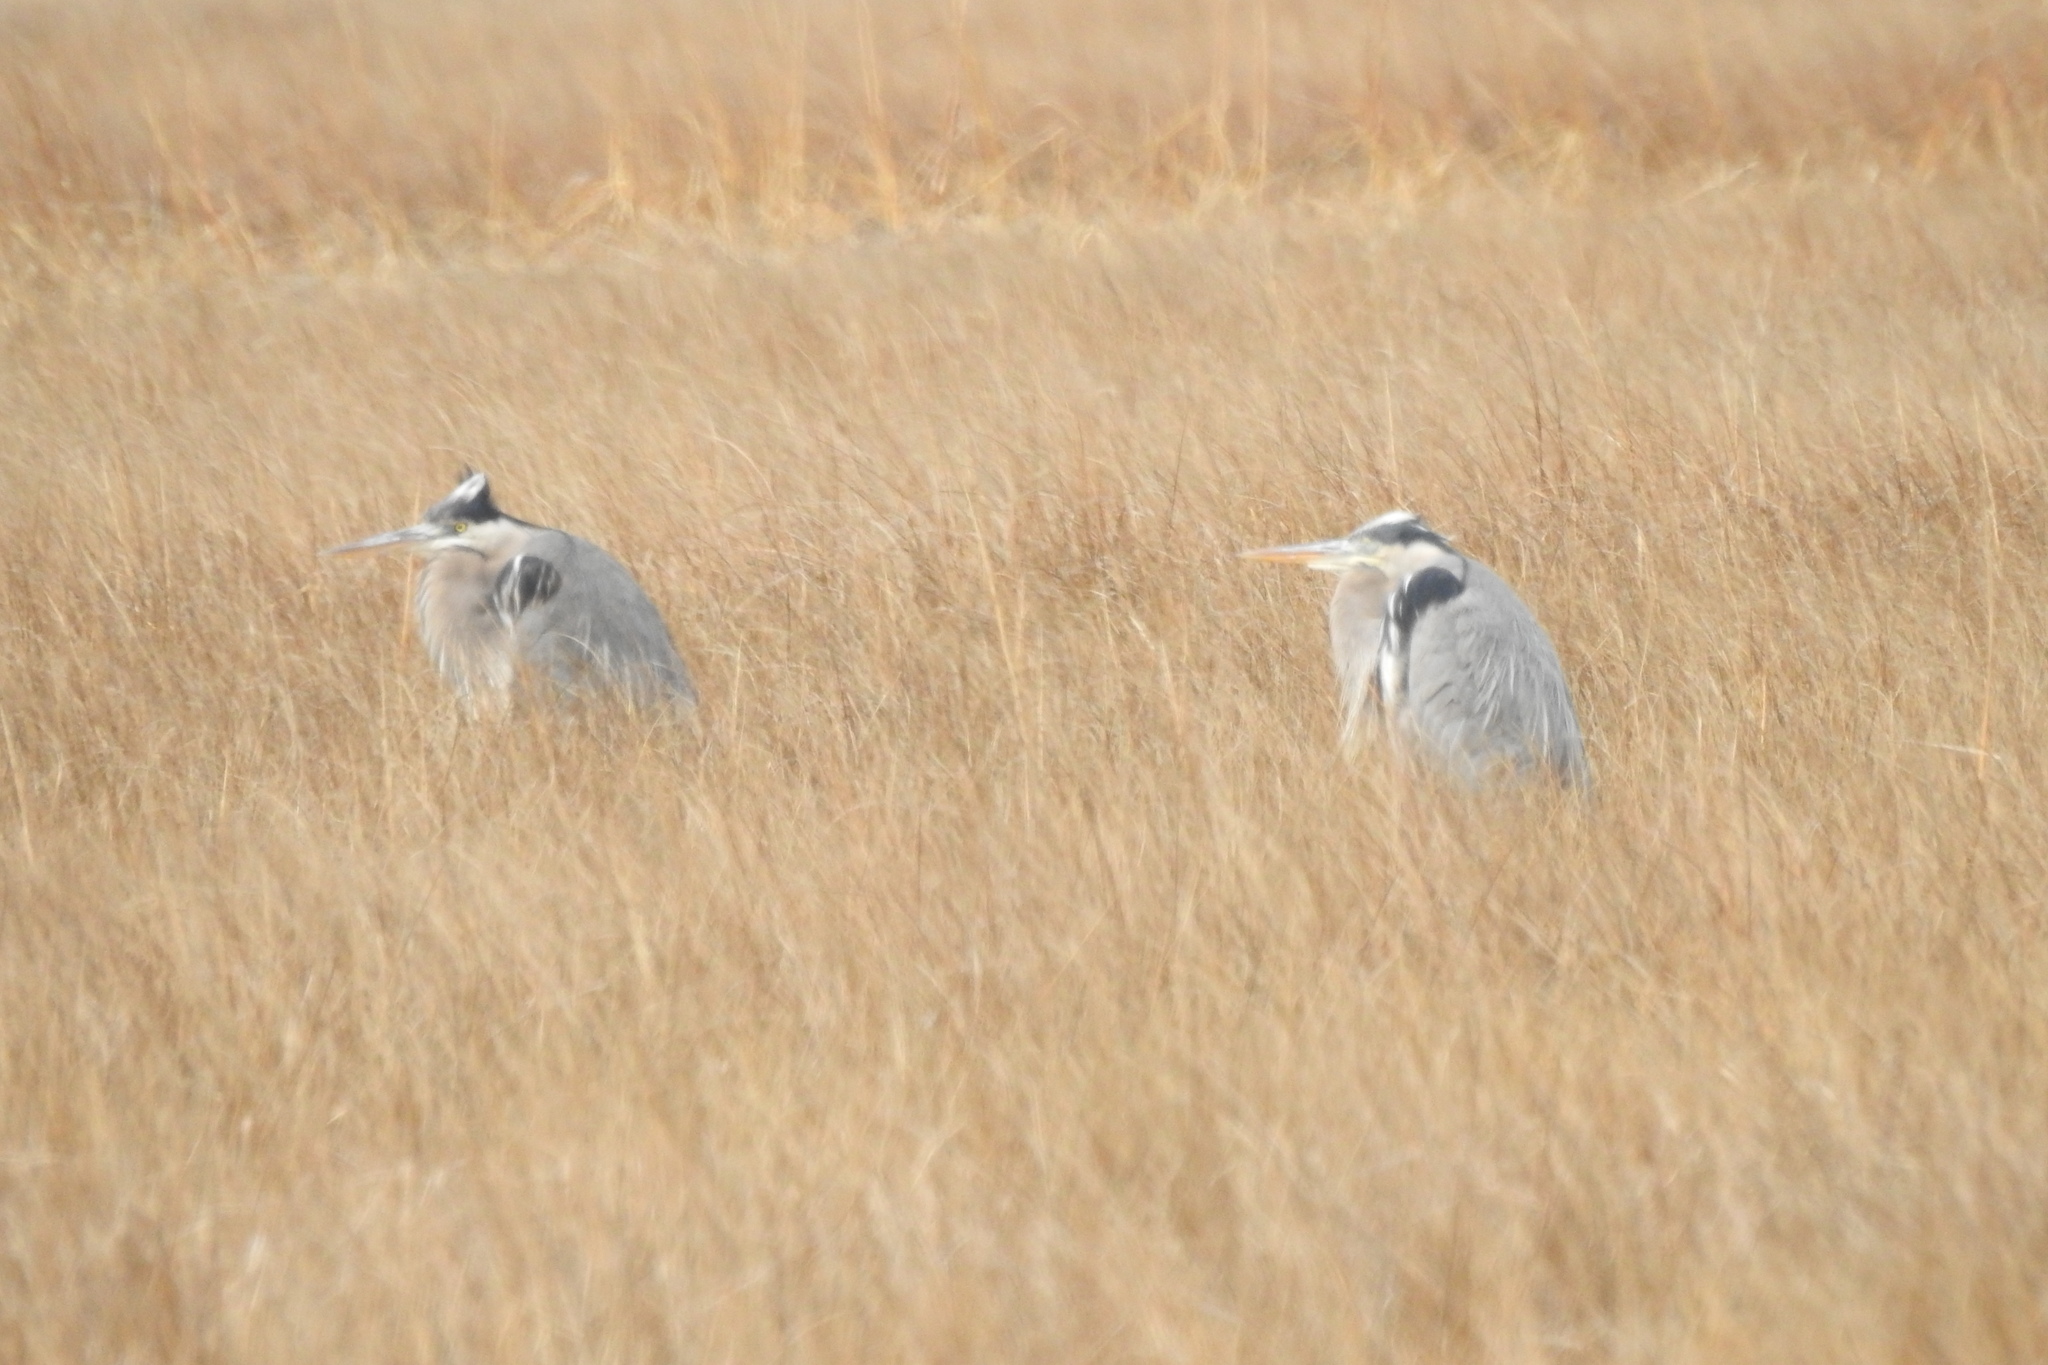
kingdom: Animalia
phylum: Chordata
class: Aves
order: Pelecaniformes
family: Ardeidae
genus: Ardea
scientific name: Ardea herodias
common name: Great blue heron
